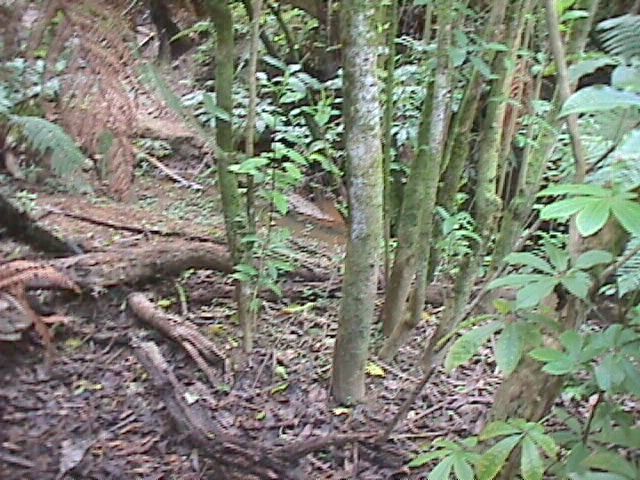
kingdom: Plantae
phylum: Tracheophyta
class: Magnoliopsida
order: Malpighiales
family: Violaceae
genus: Melicytus
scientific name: Melicytus ramiflorus
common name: Mahoe
